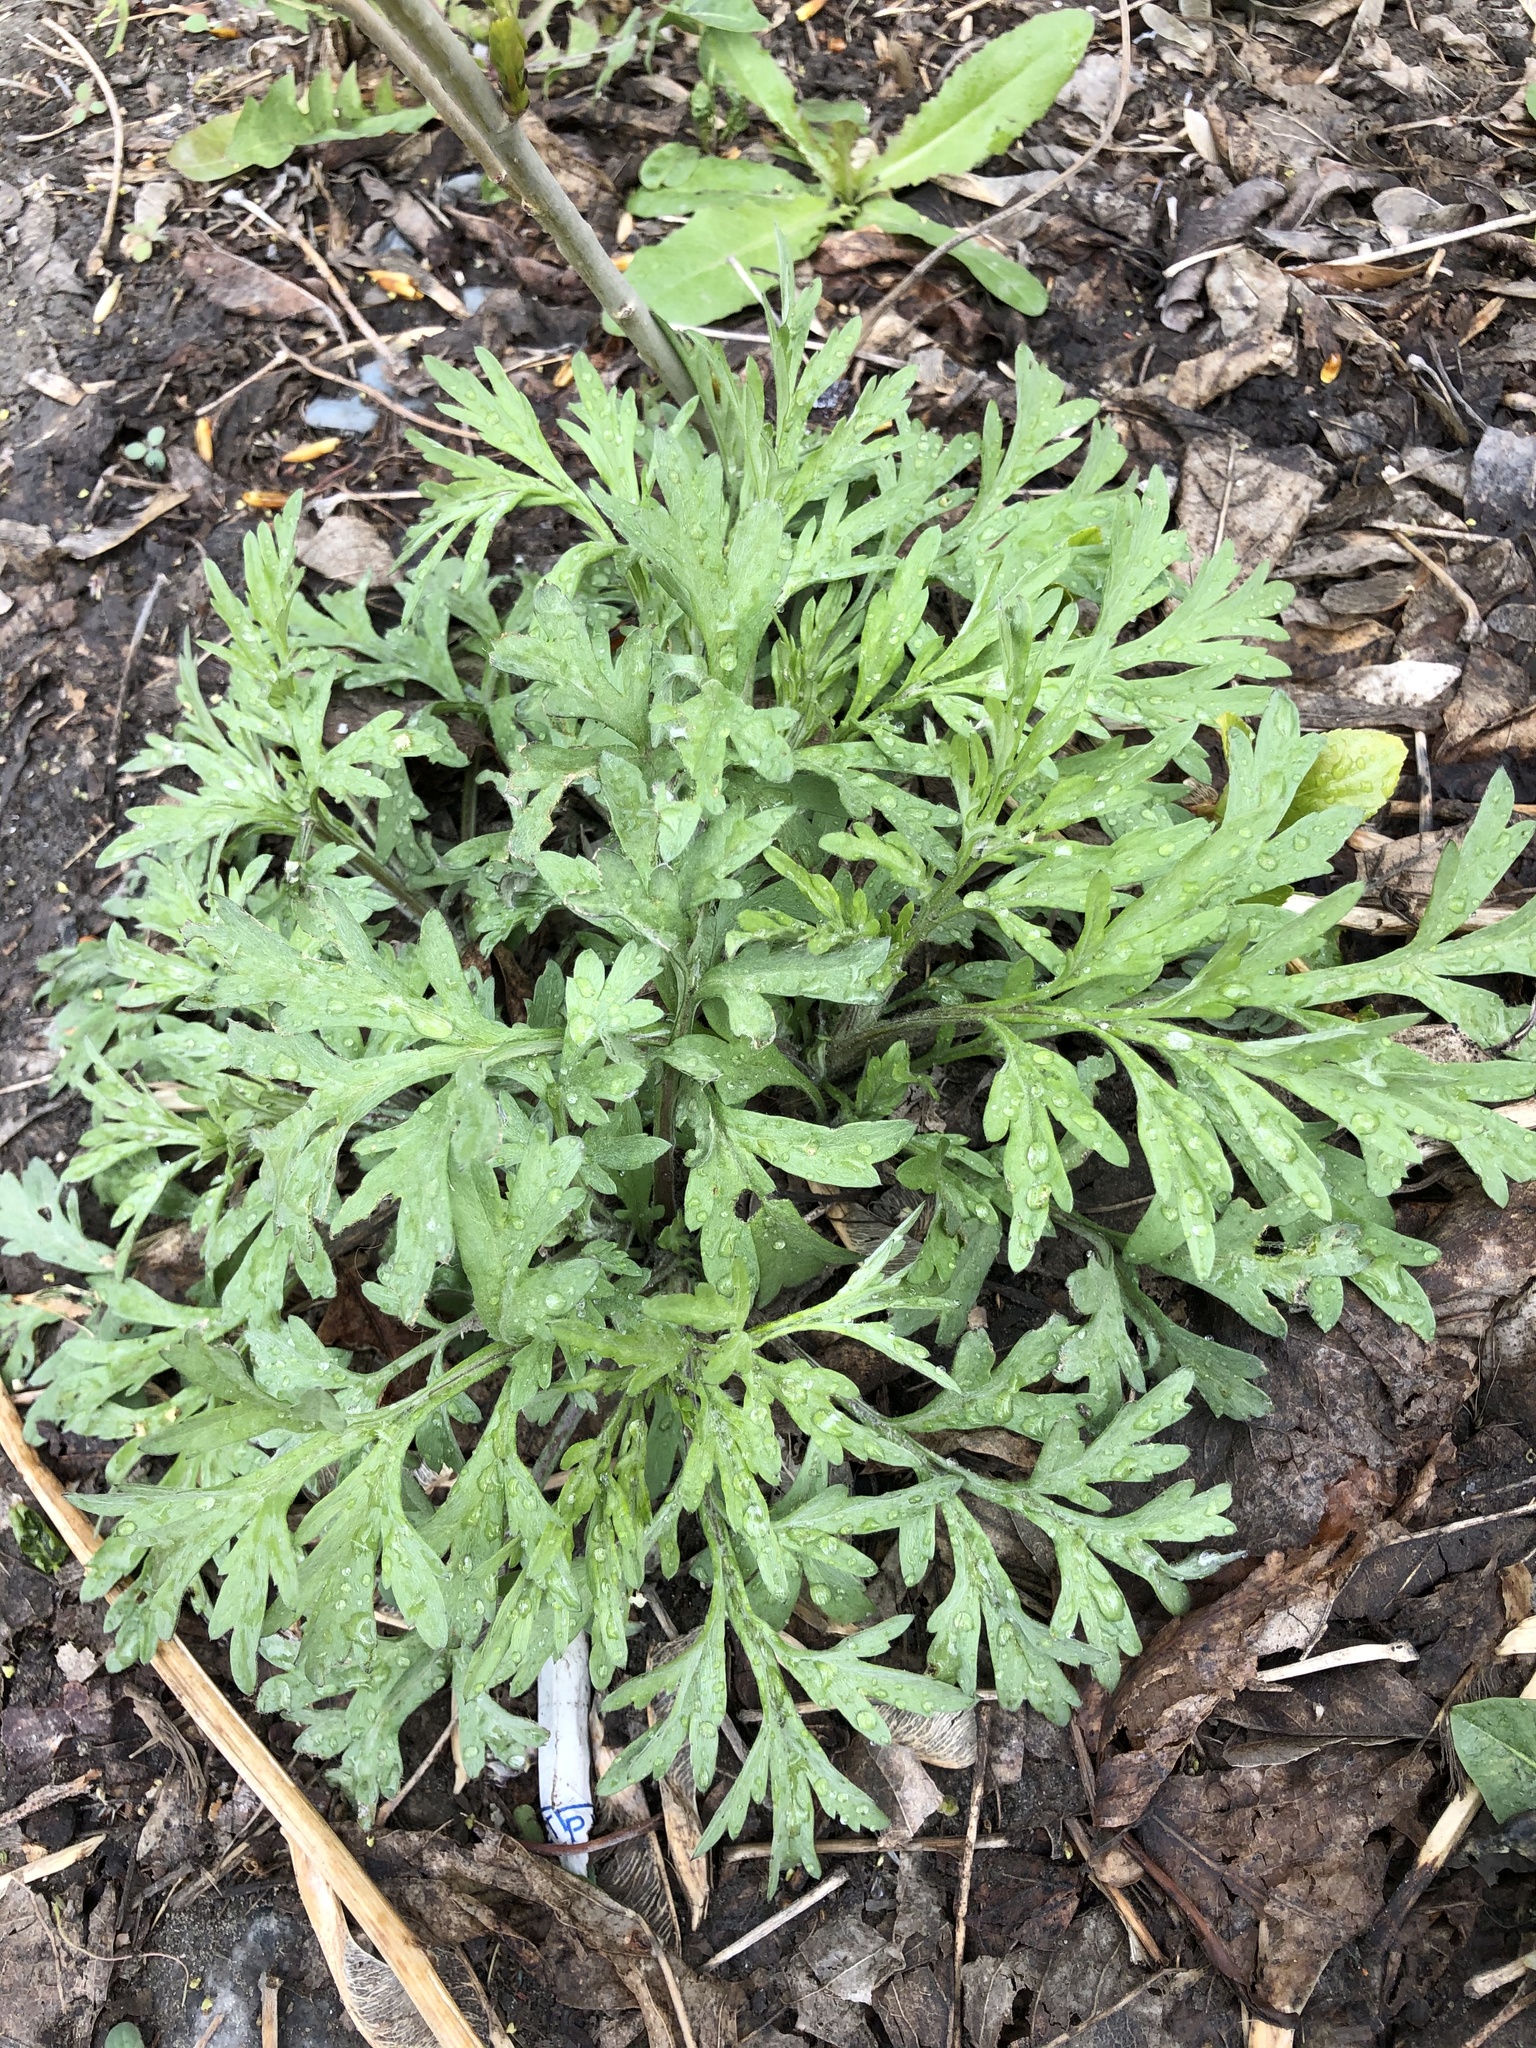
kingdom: Plantae
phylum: Tracheophyta
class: Magnoliopsida
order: Asterales
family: Asteraceae
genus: Artemisia
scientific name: Artemisia vulgaris
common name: Mugwort
